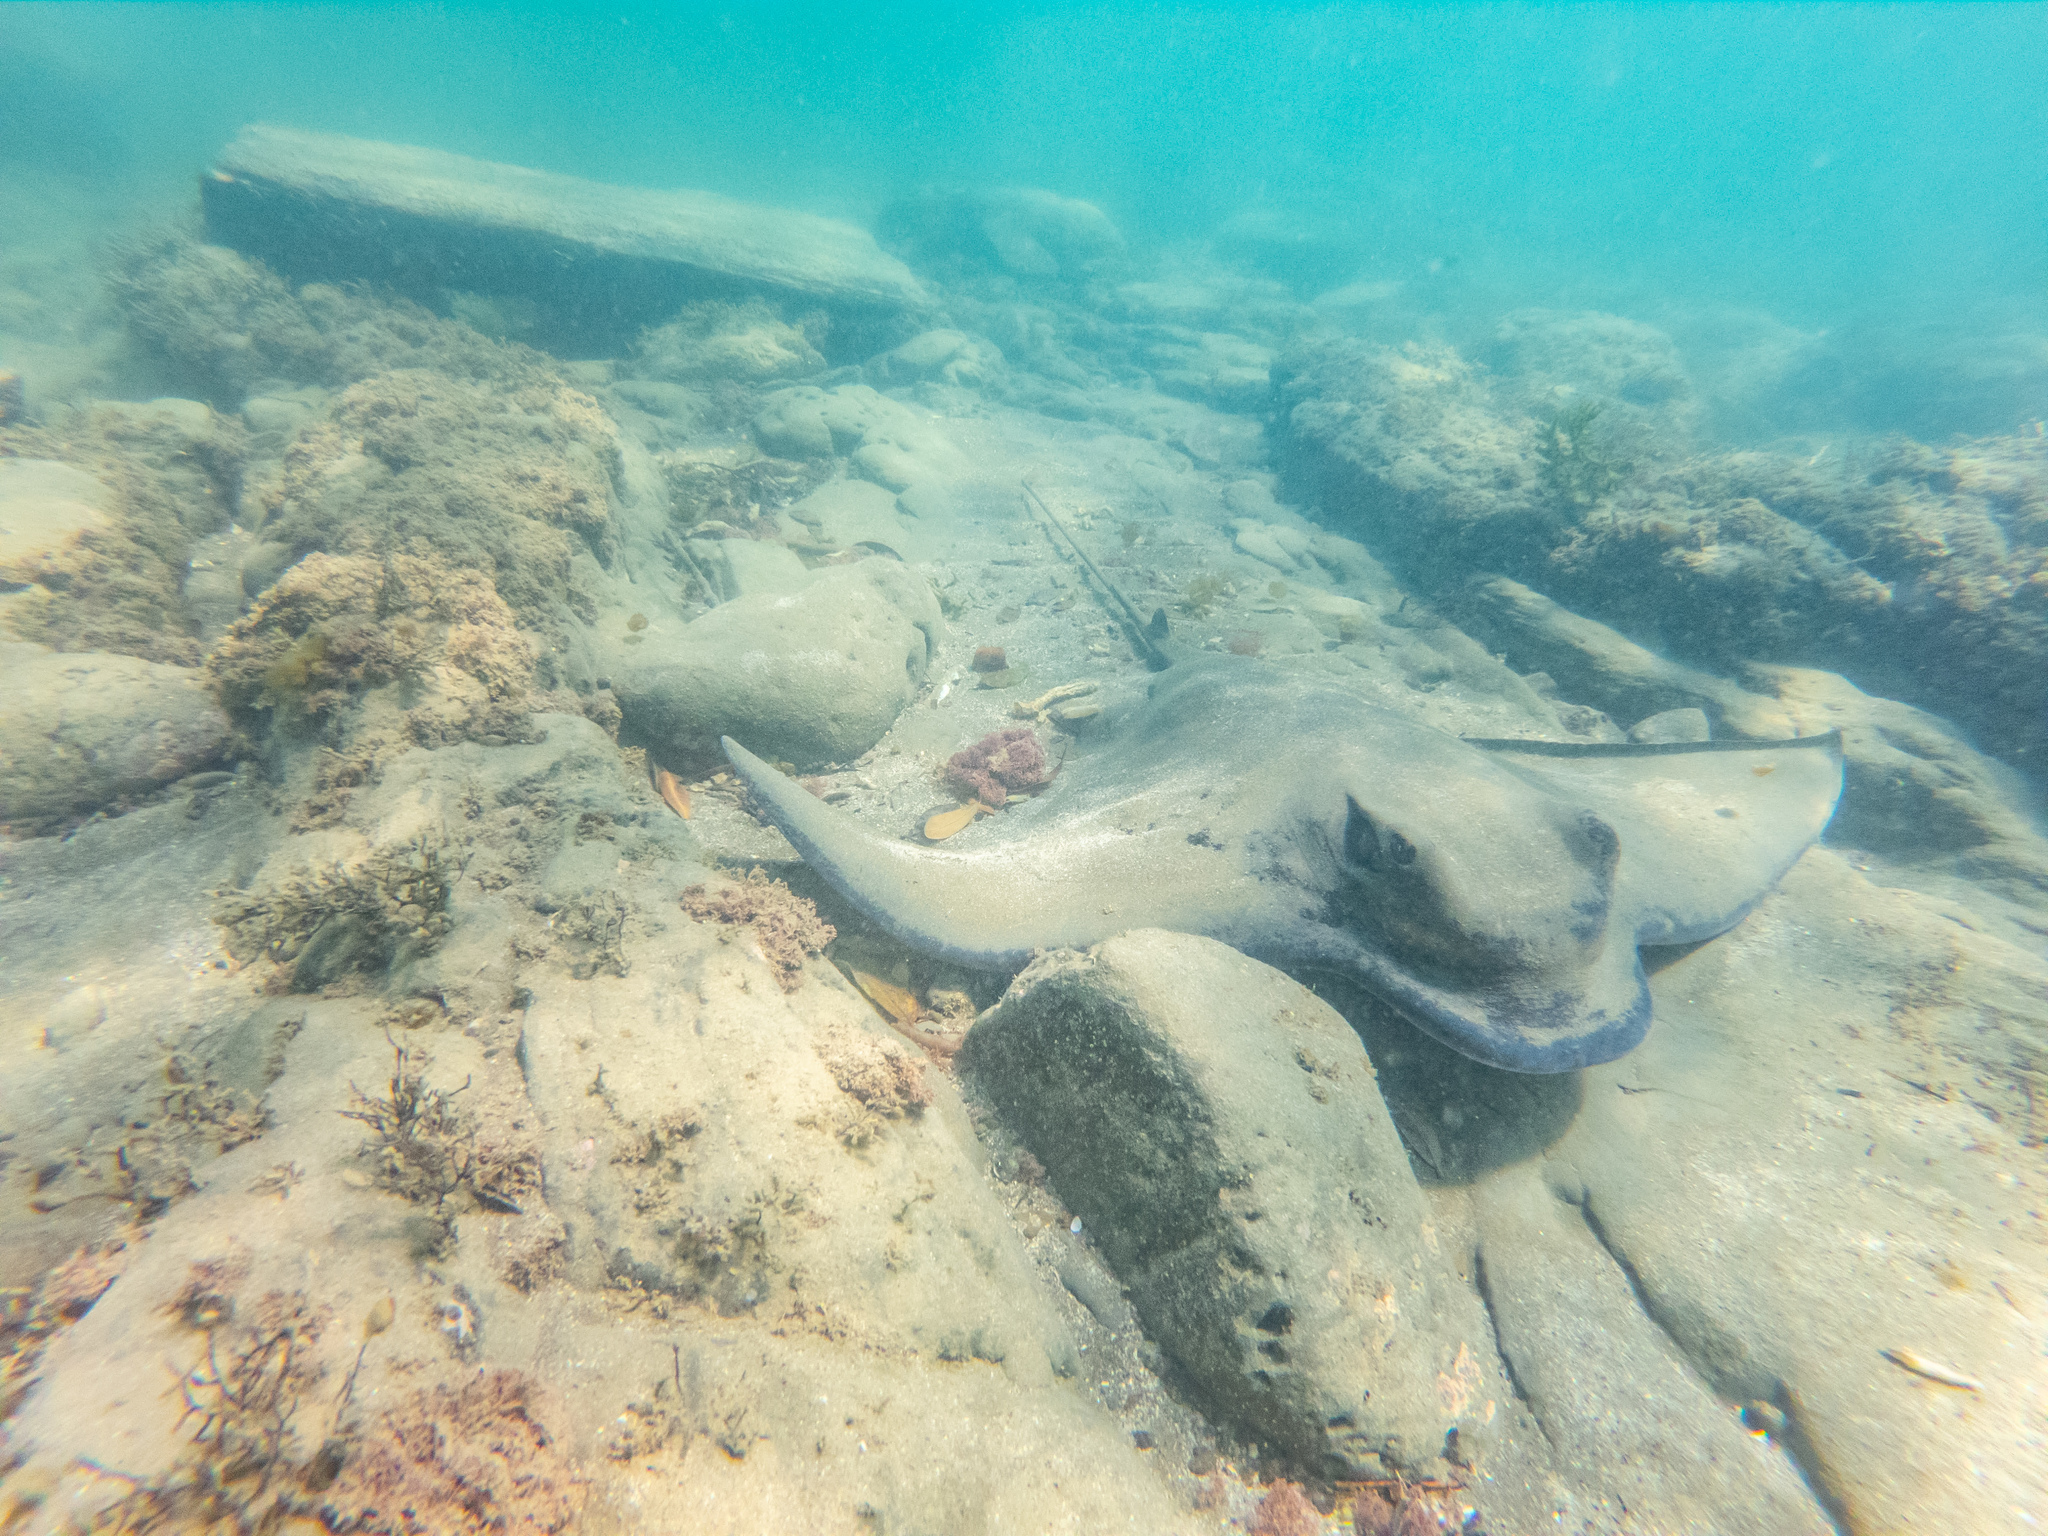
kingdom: Animalia
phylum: Chordata
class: Elasmobranchii
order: Myliobatiformes
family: Myliobatidae
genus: Myliobatis
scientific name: Myliobatis tenuicaudatus
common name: Eagle ray
